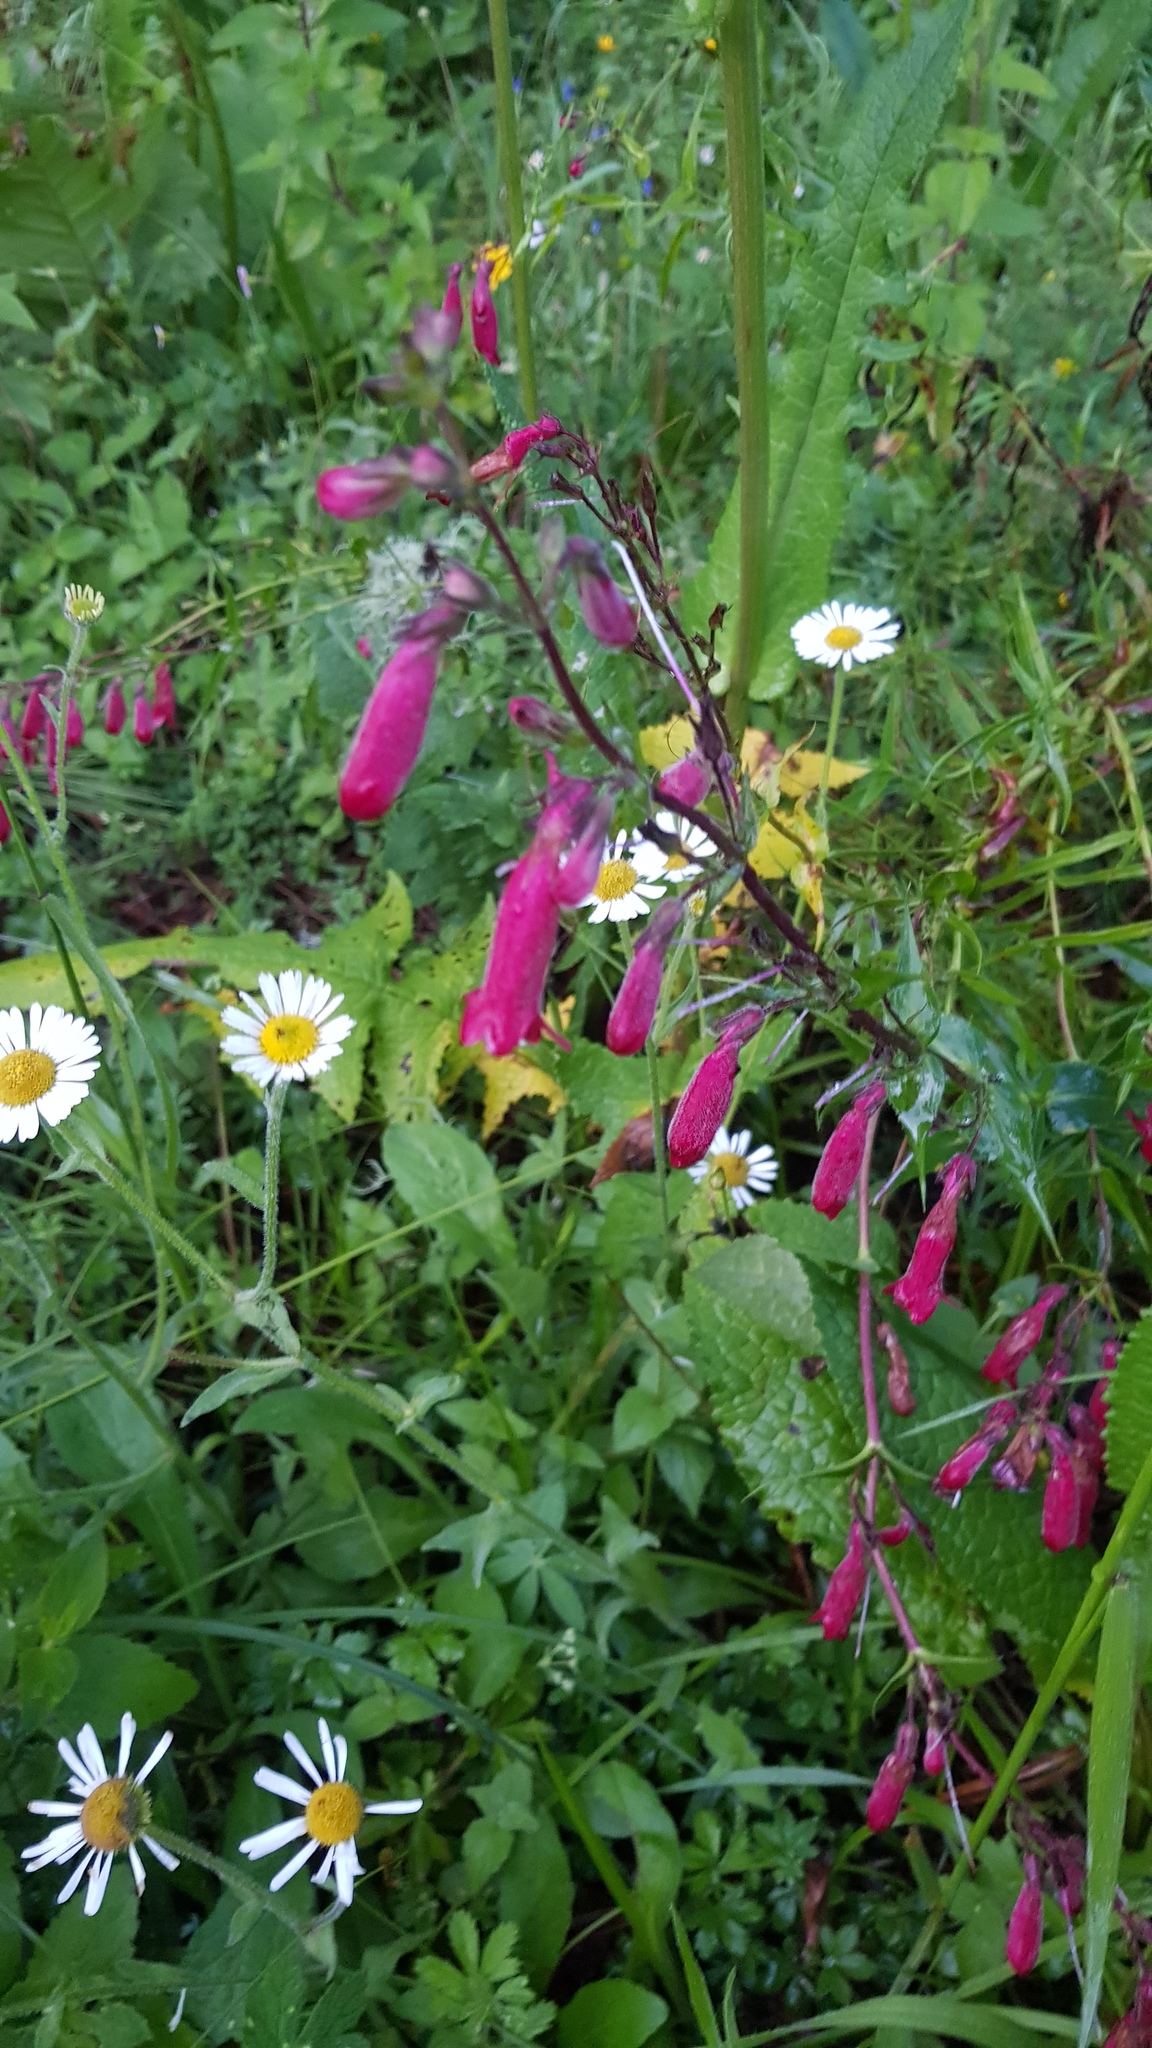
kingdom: Plantae
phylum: Tracheophyta
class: Magnoliopsida
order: Lamiales
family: Plantaginaceae
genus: Penstemon
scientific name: Penstemon roseus
